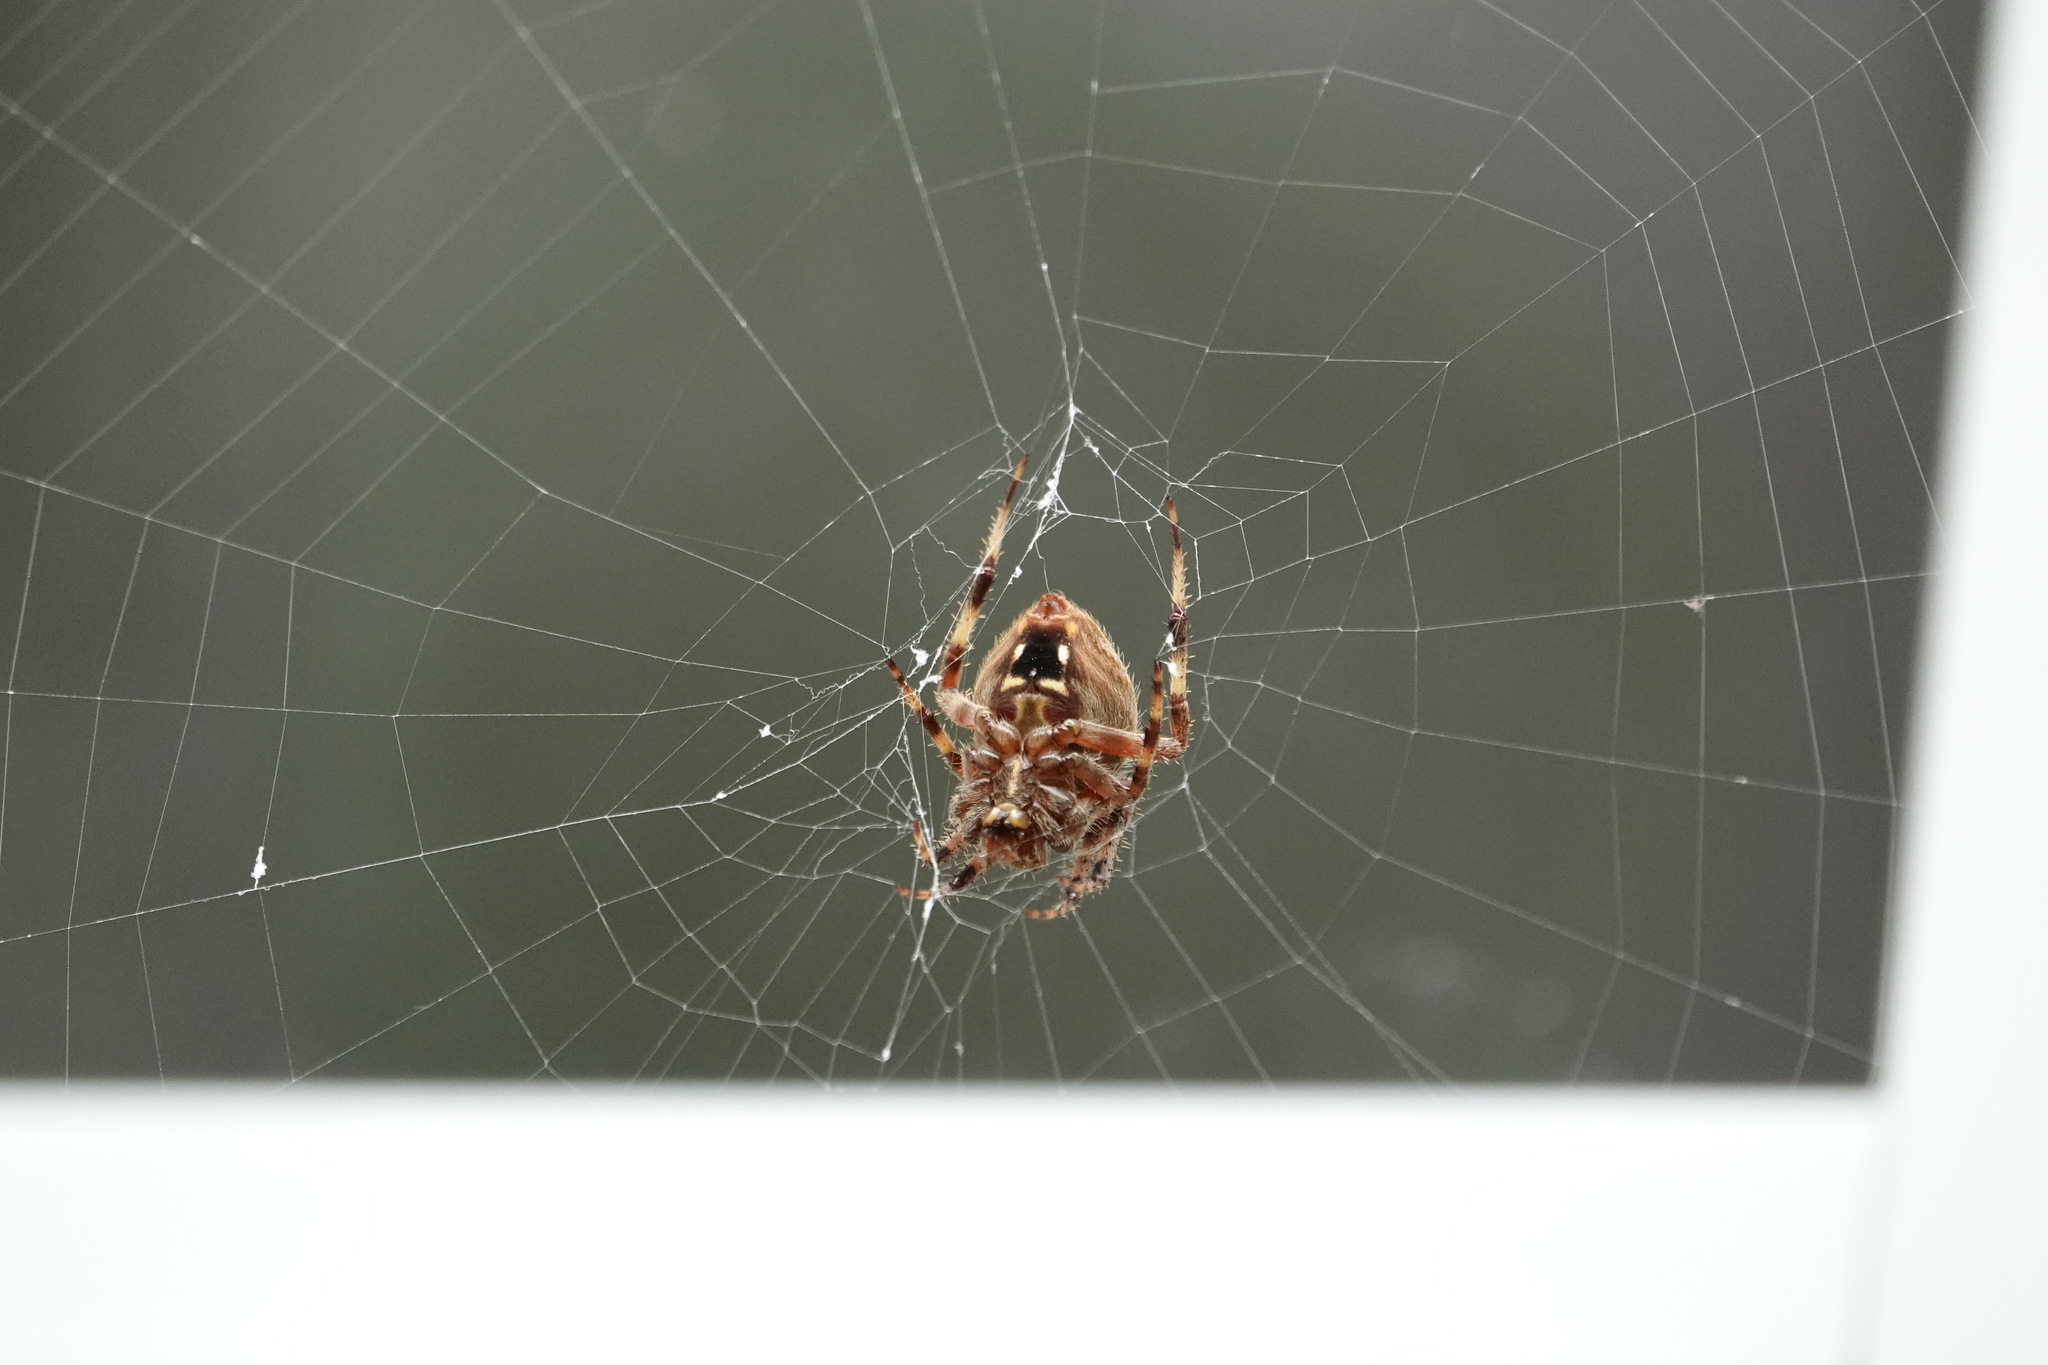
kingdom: Animalia
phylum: Arthropoda
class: Arachnida
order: Araneae
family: Araneidae
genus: Neoscona
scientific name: Neoscona crucifera
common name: Spotted orbweaver
